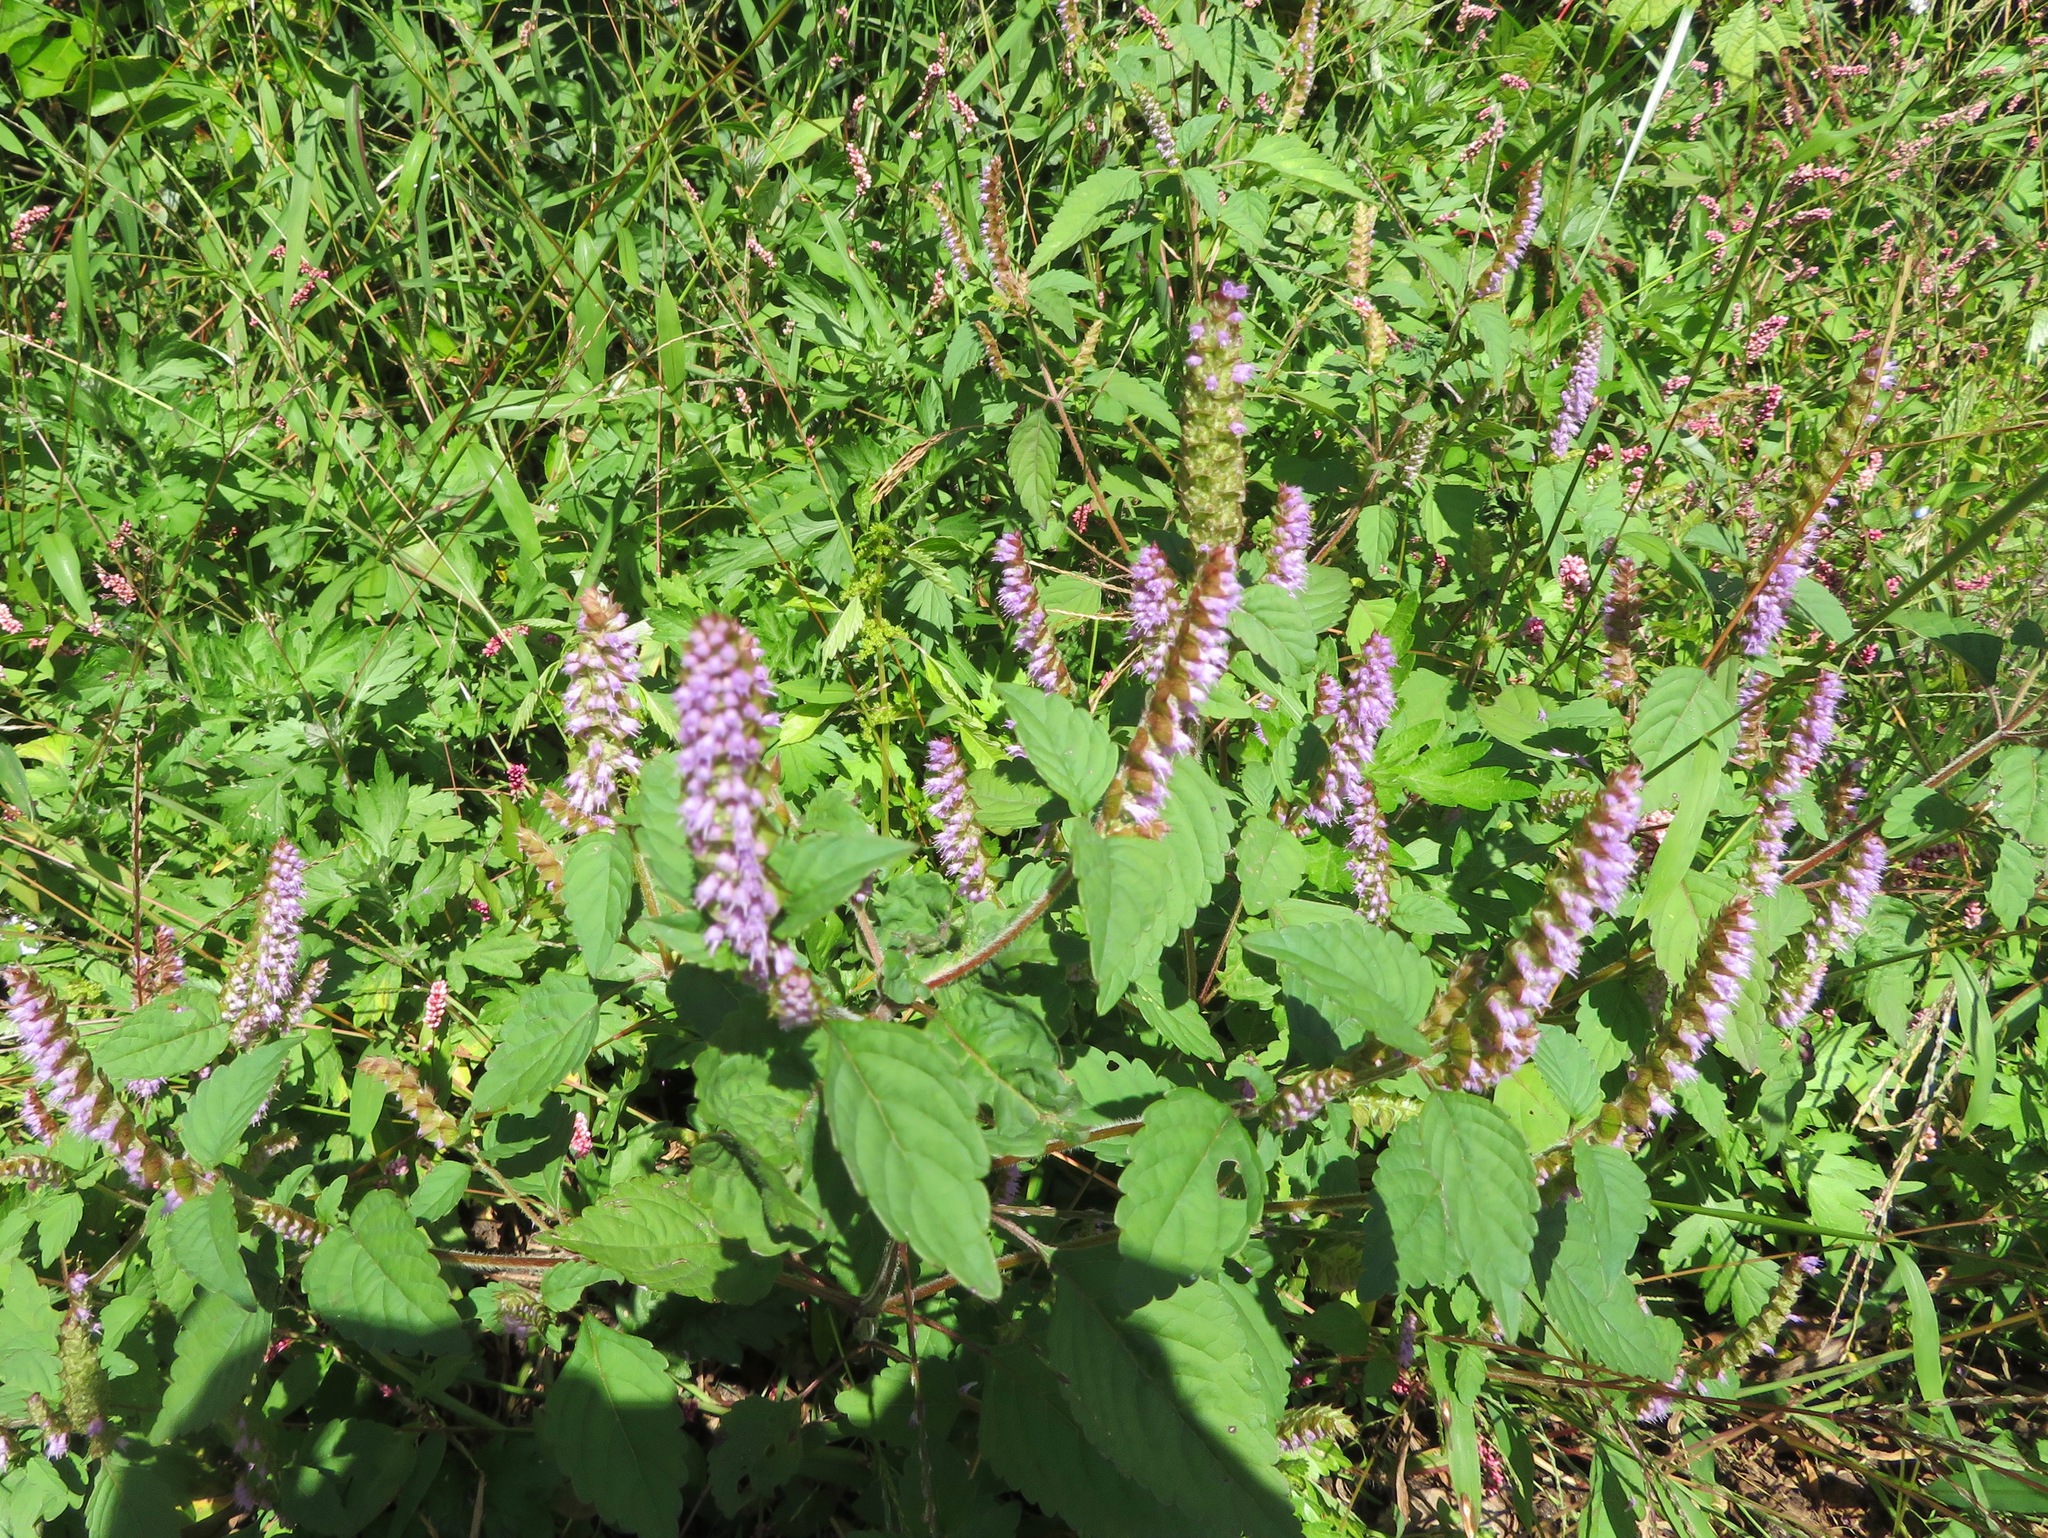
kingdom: Plantae
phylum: Tracheophyta
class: Magnoliopsida
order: Lamiales
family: Lamiaceae
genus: Elsholtzia
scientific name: Elsholtzia ciliata
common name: Ciliate elsholtzia
